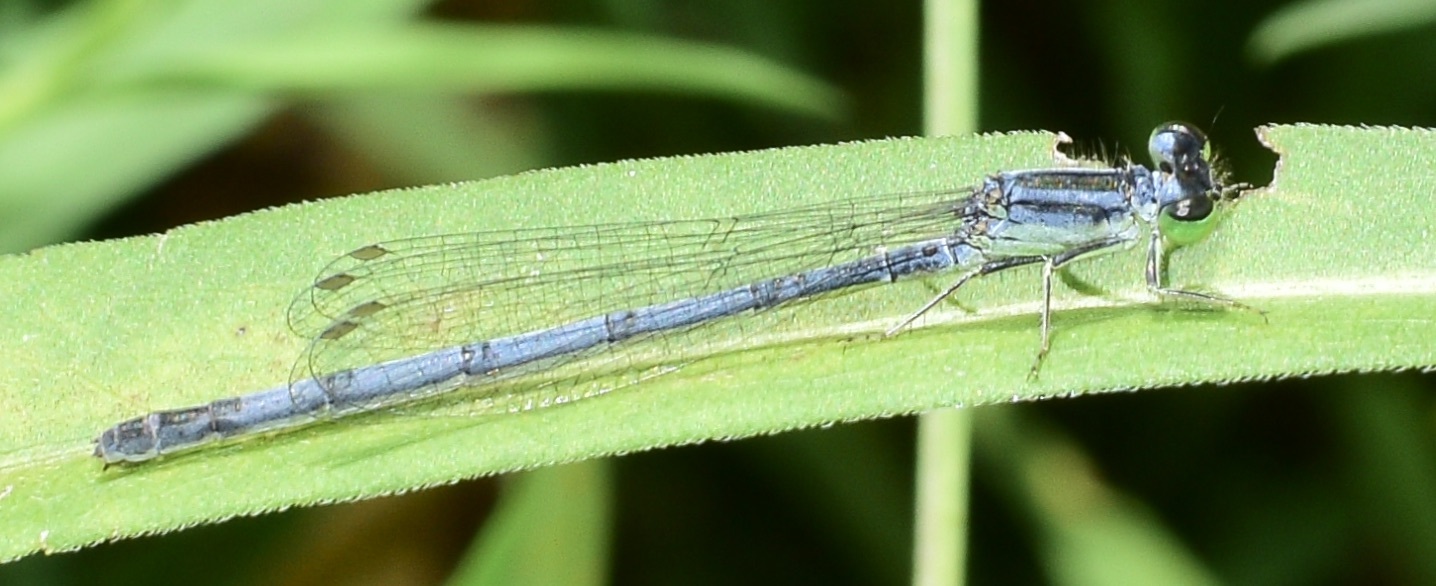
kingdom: Animalia
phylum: Arthropoda
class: Insecta
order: Odonata
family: Coenagrionidae
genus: Ischnura
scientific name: Ischnura verticalis
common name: Eastern forktail
